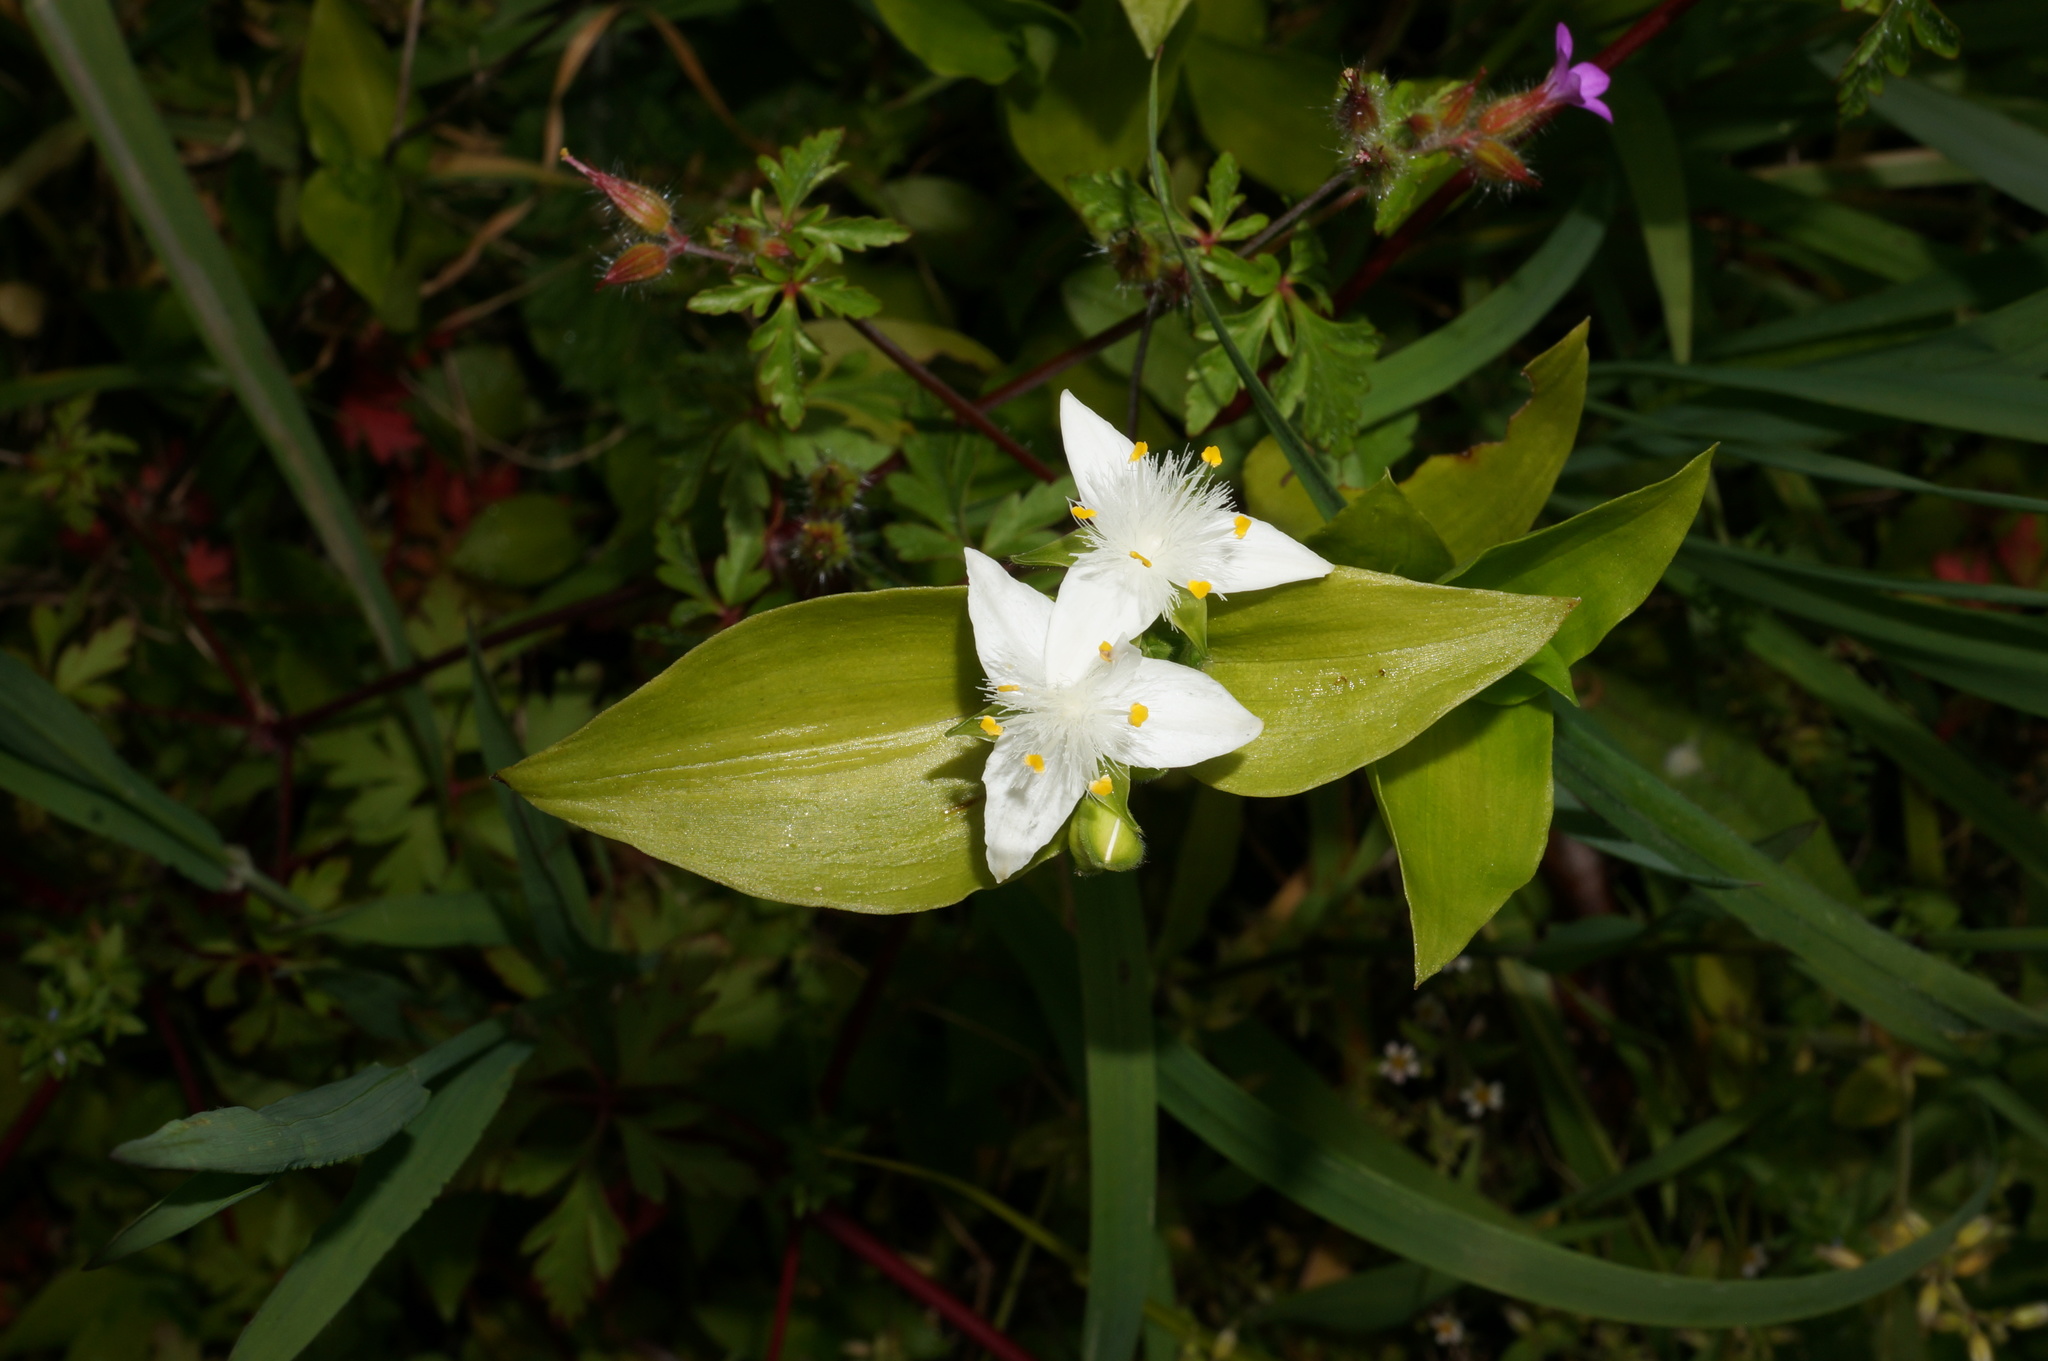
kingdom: Plantae
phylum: Tracheophyta
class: Liliopsida
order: Commelinales
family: Commelinaceae
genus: Tradescantia
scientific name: Tradescantia fluminensis
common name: Wandering-jew
